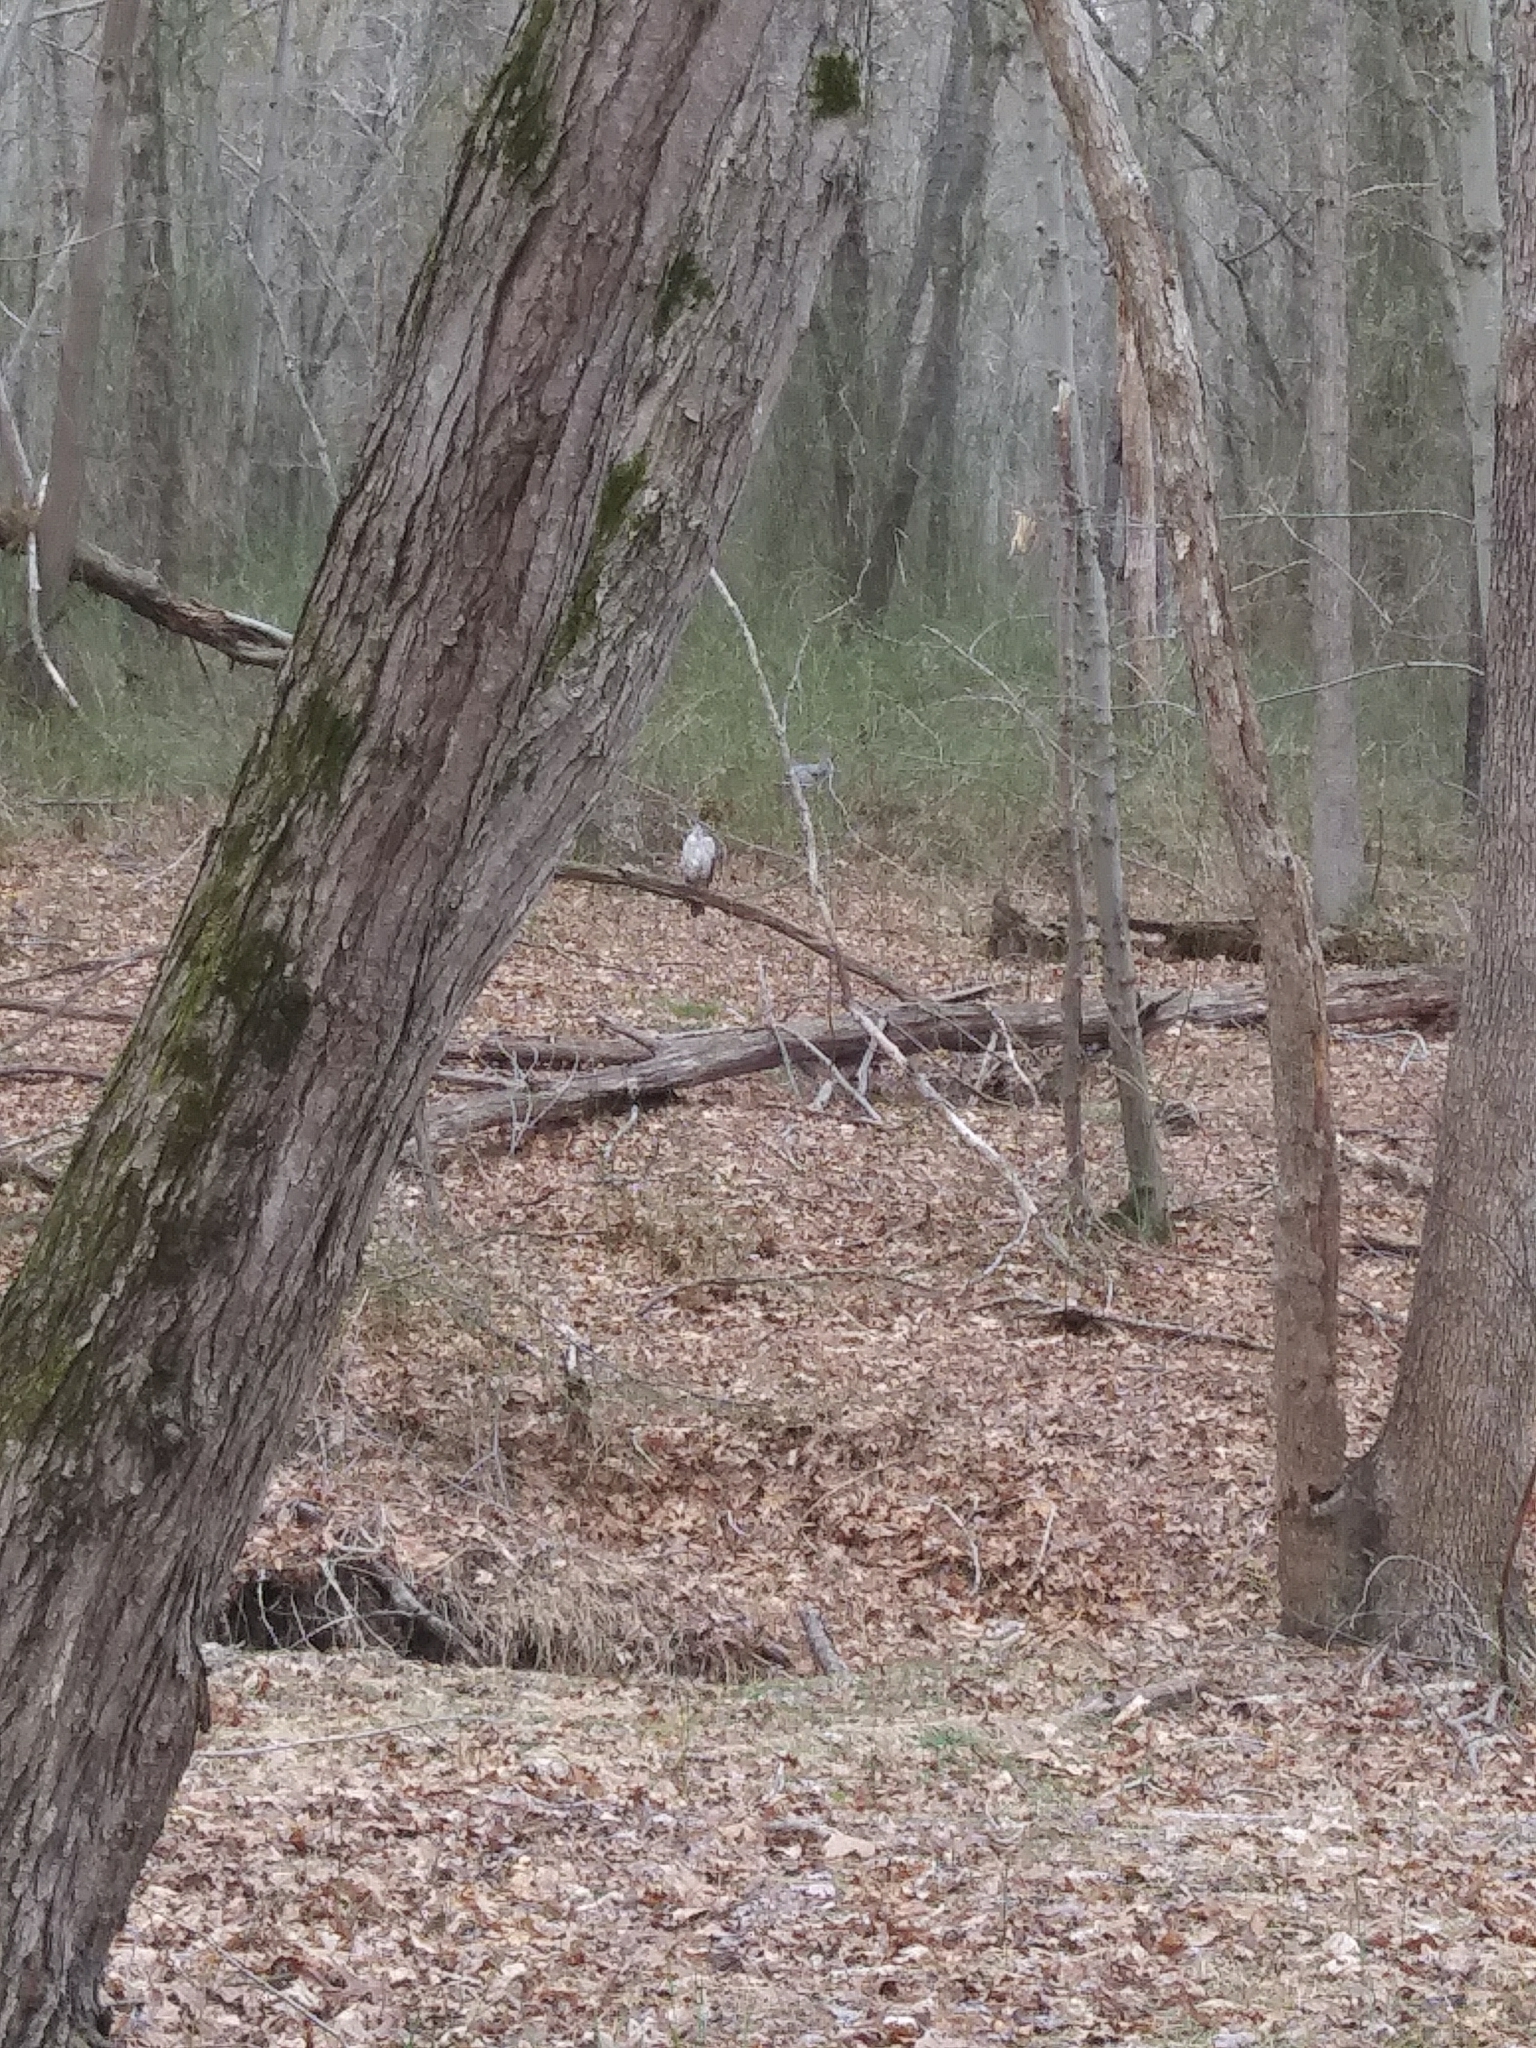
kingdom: Animalia
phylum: Chordata
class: Aves
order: Accipitriformes
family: Accipitridae
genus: Accipiter
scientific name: Accipiter cooperii
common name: Cooper's hawk
